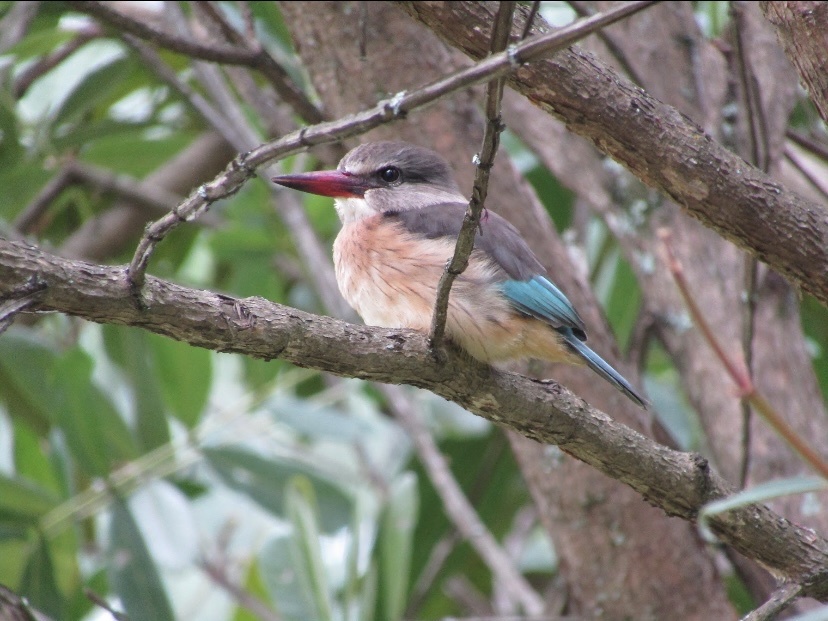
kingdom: Animalia
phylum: Chordata
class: Aves
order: Coraciiformes
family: Alcedinidae
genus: Halcyon
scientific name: Halcyon albiventris
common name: Brown-hooded kingfisher
